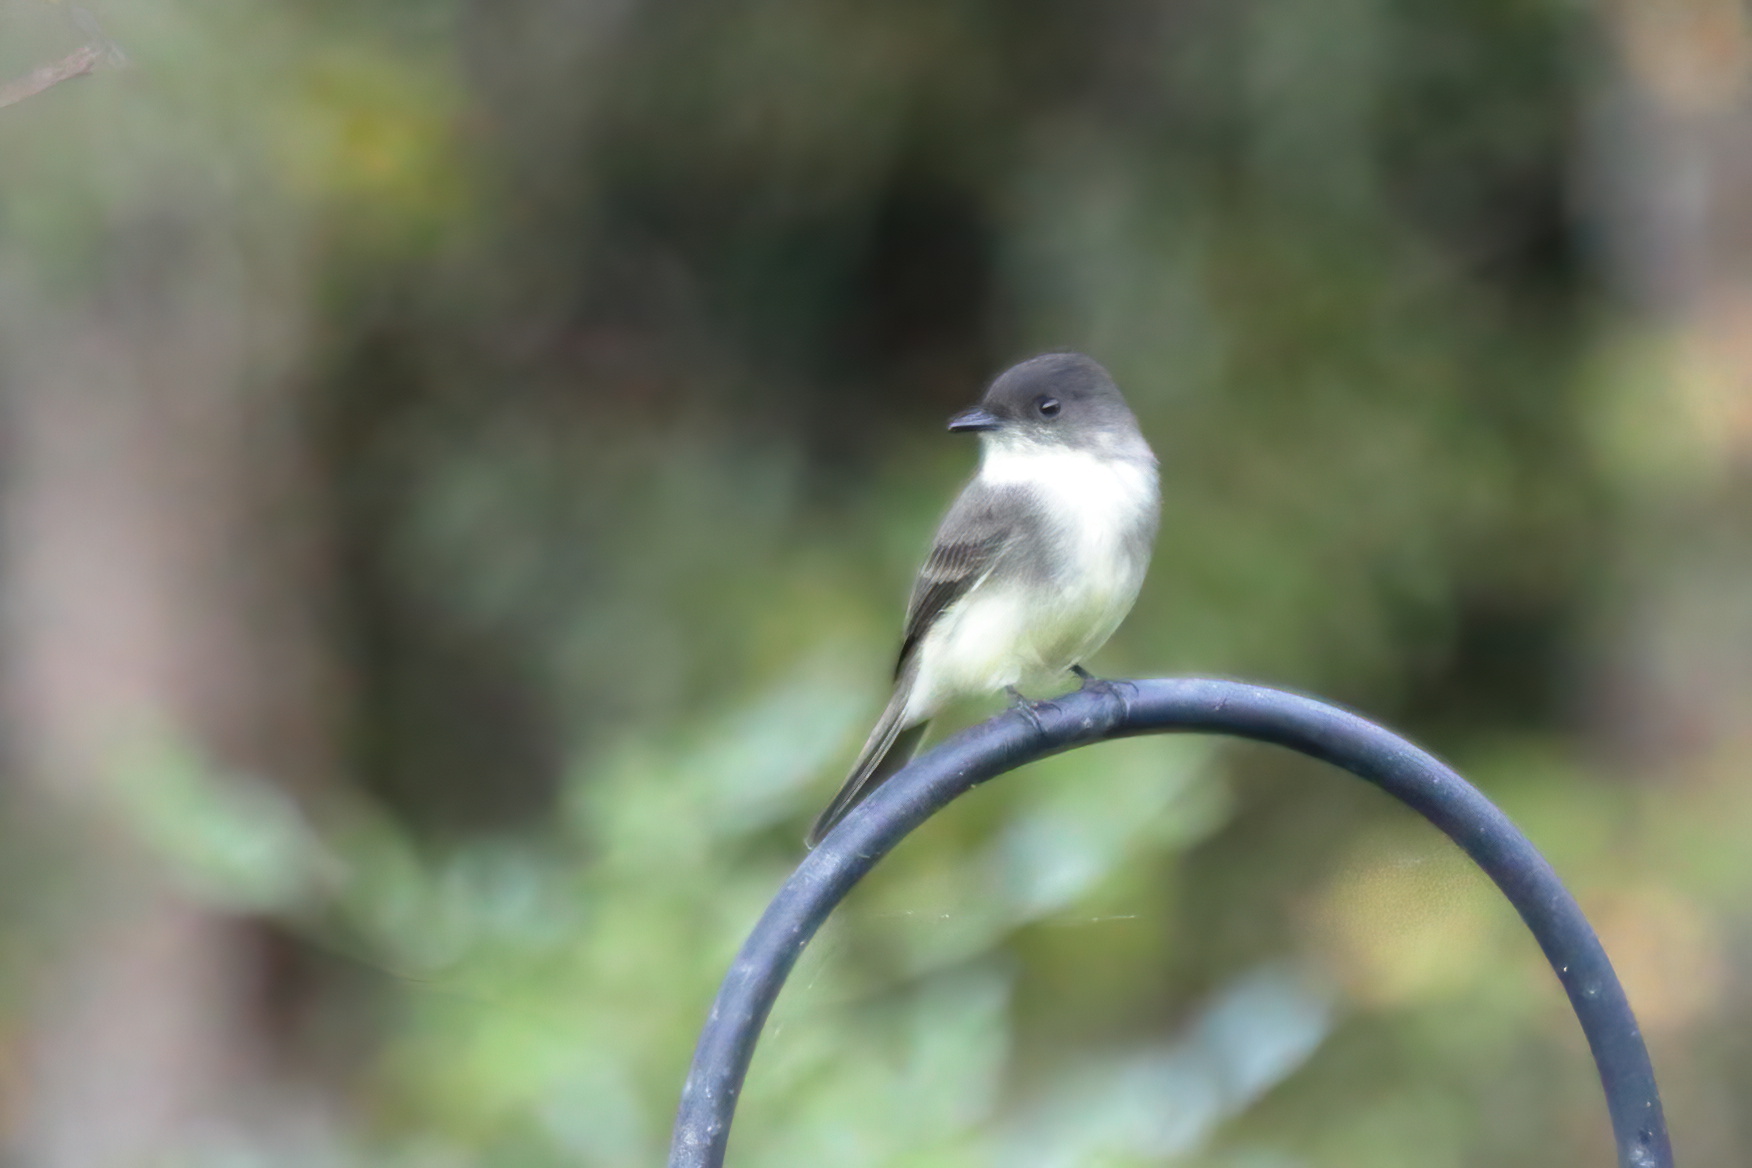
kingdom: Animalia
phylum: Chordata
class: Aves
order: Passeriformes
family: Tyrannidae
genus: Sayornis
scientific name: Sayornis phoebe
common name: Eastern phoebe
